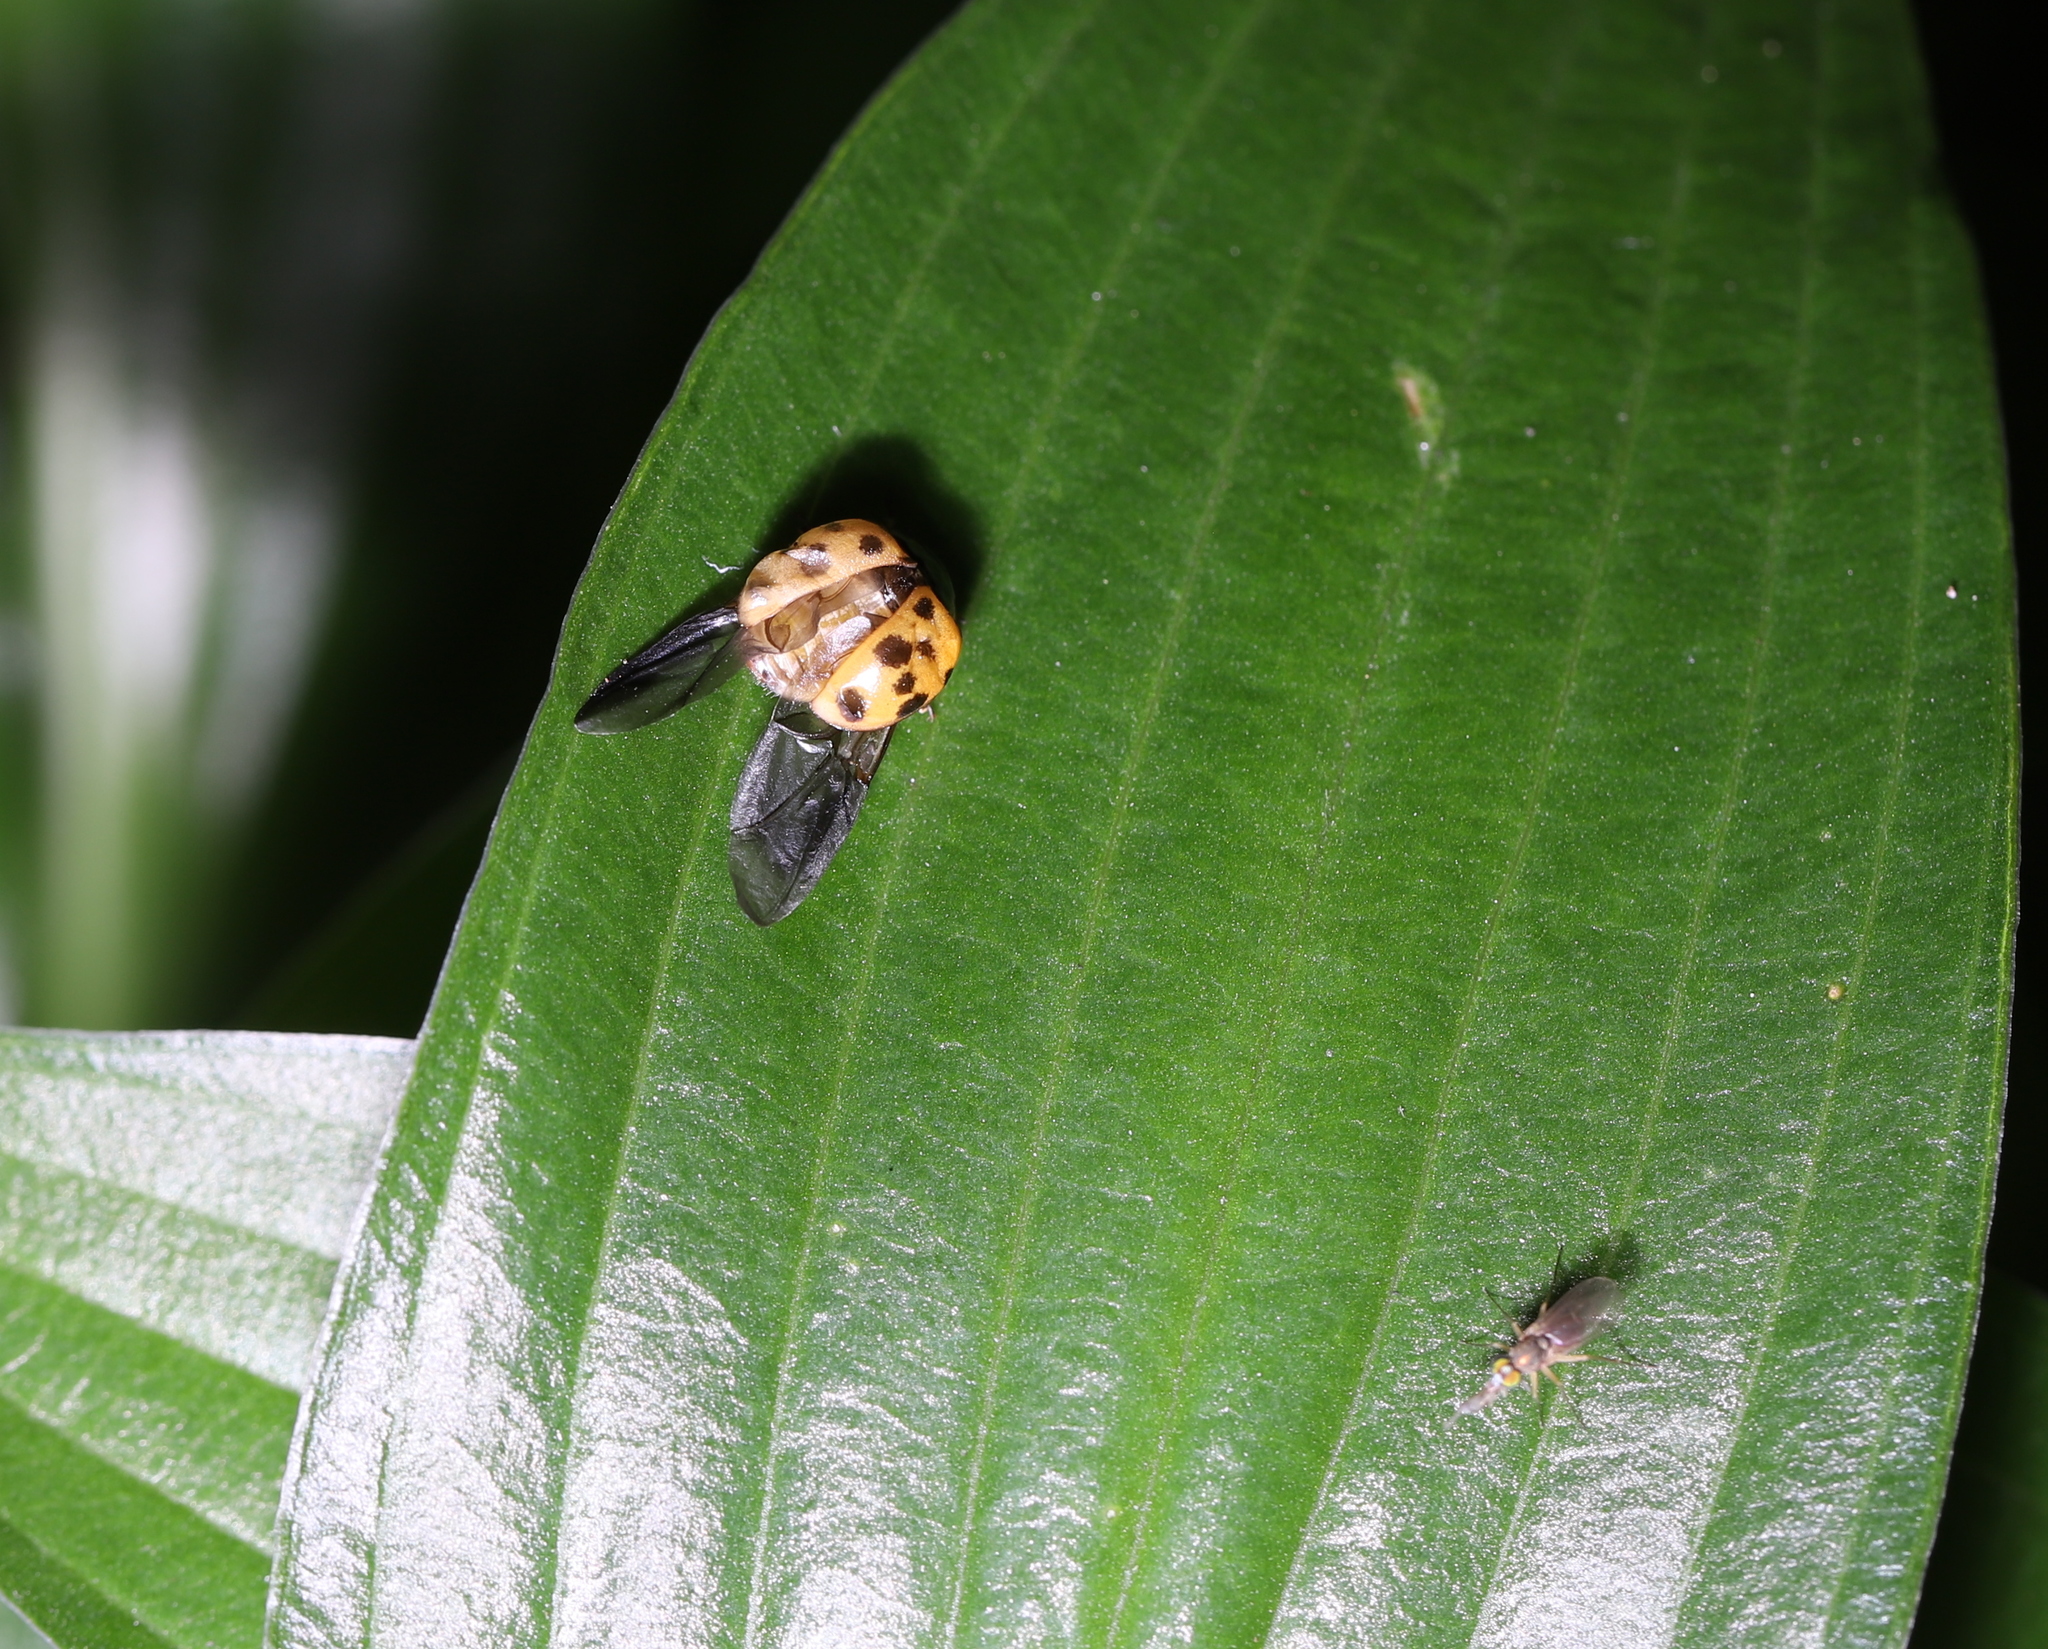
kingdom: Animalia
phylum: Arthropoda
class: Insecta
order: Coleoptera
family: Coccinellidae
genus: Harmonia
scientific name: Harmonia axyridis
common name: Harlequin ladybird
